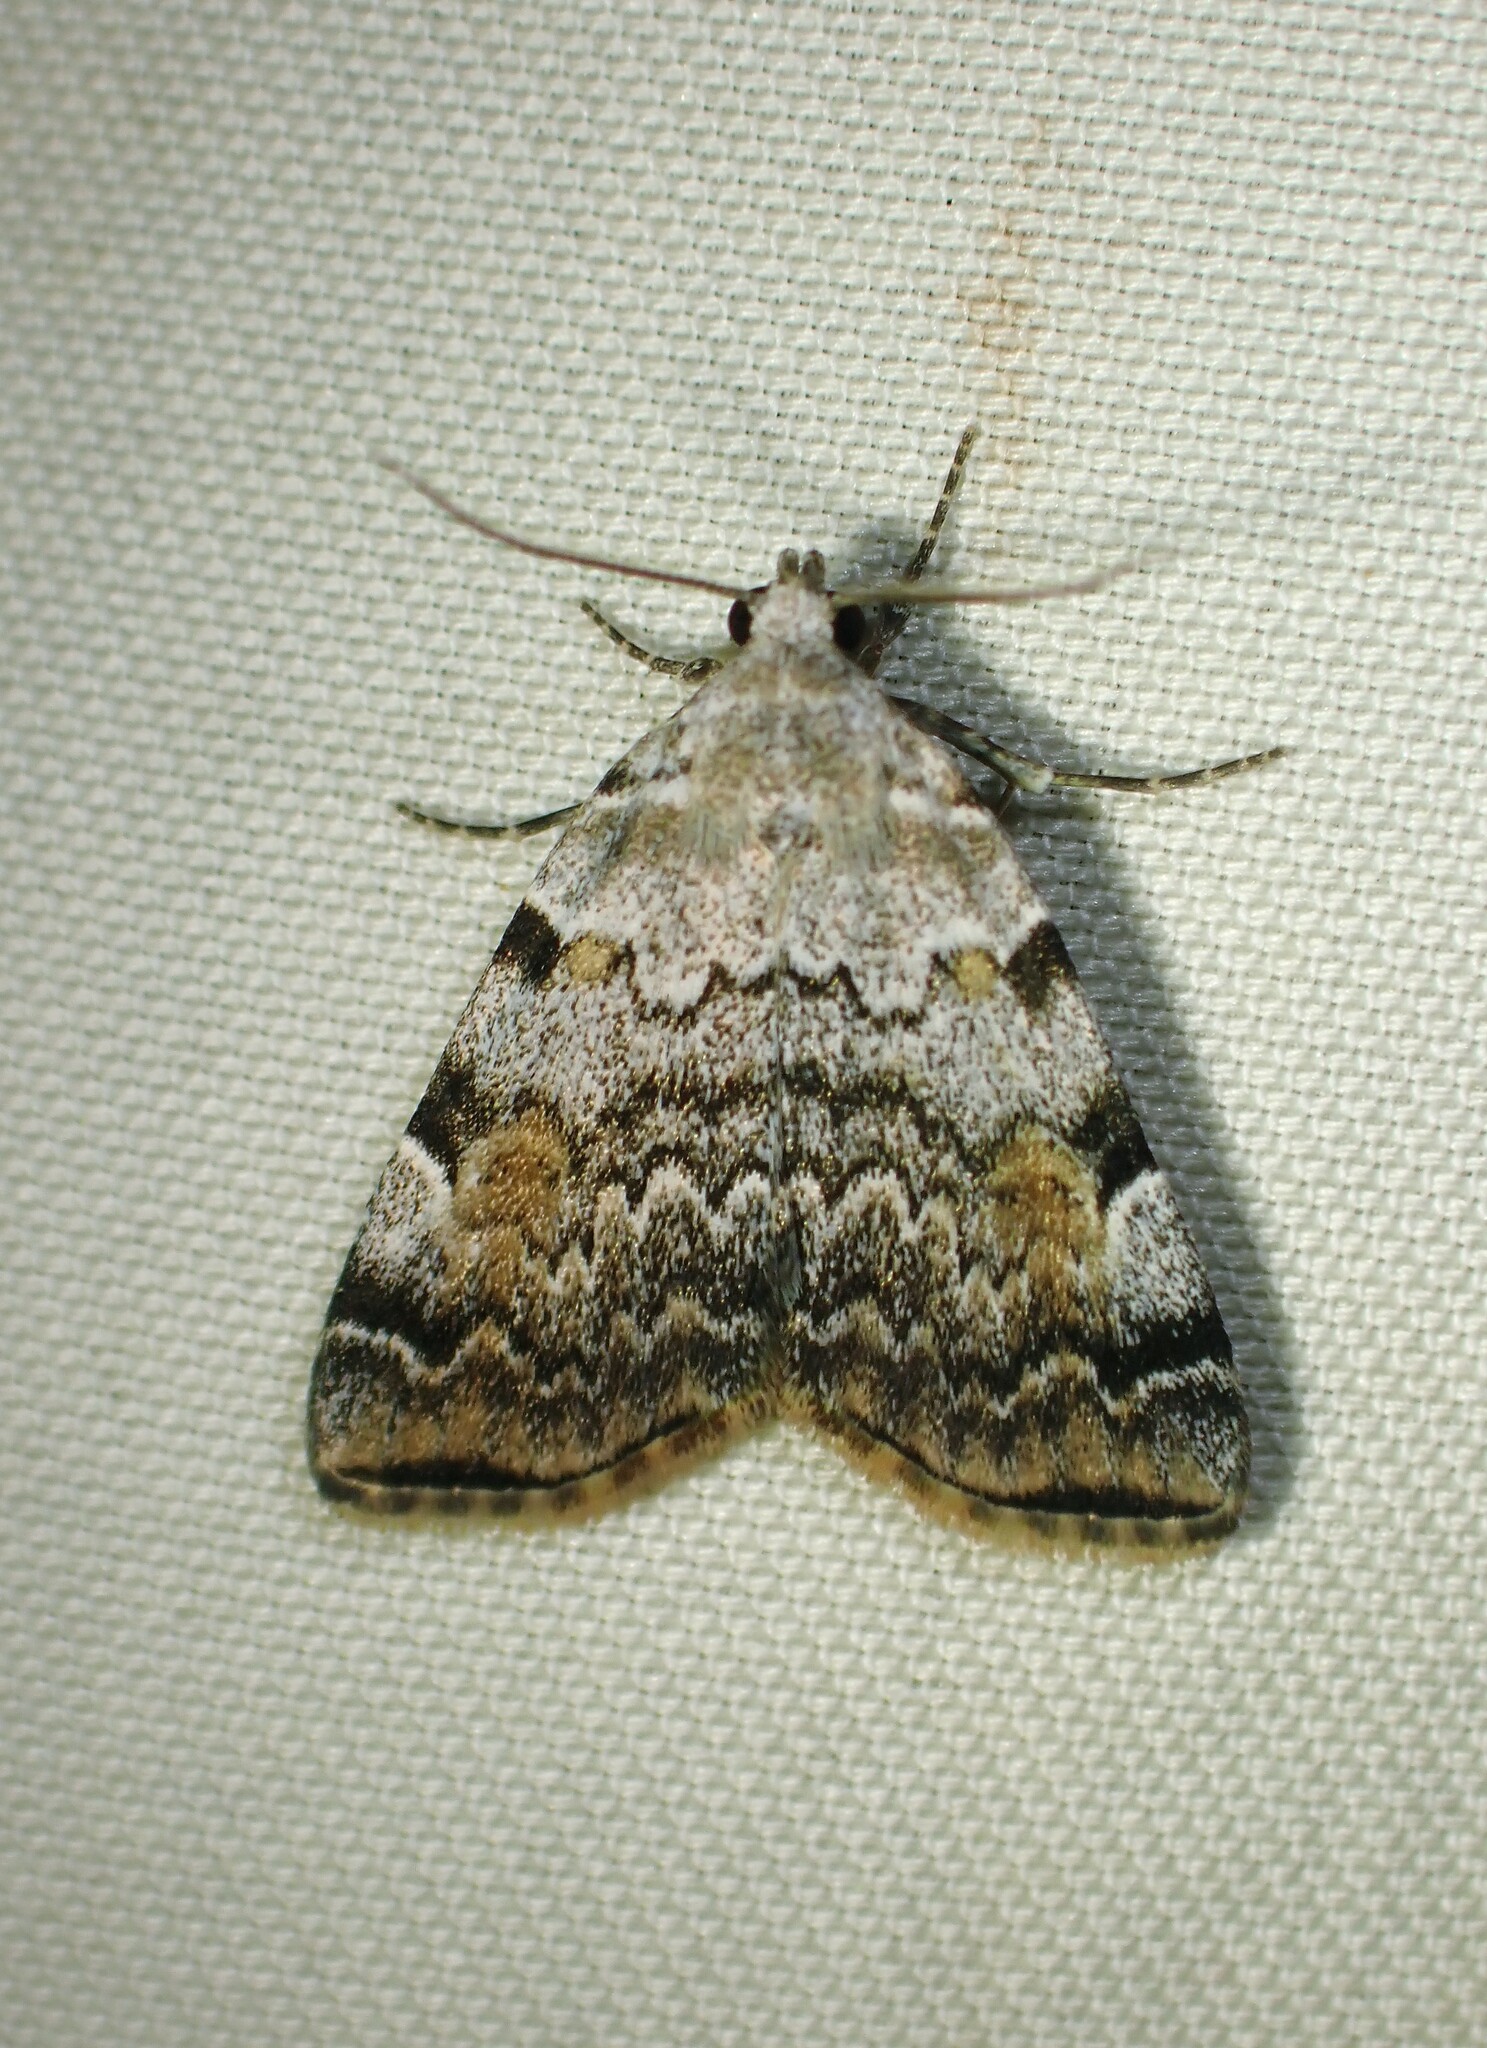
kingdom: Animalia
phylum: Arthropoda
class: Insecta
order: Lepidoptera
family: Erebidae
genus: Idia
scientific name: Idia americalis
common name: American idia moth
